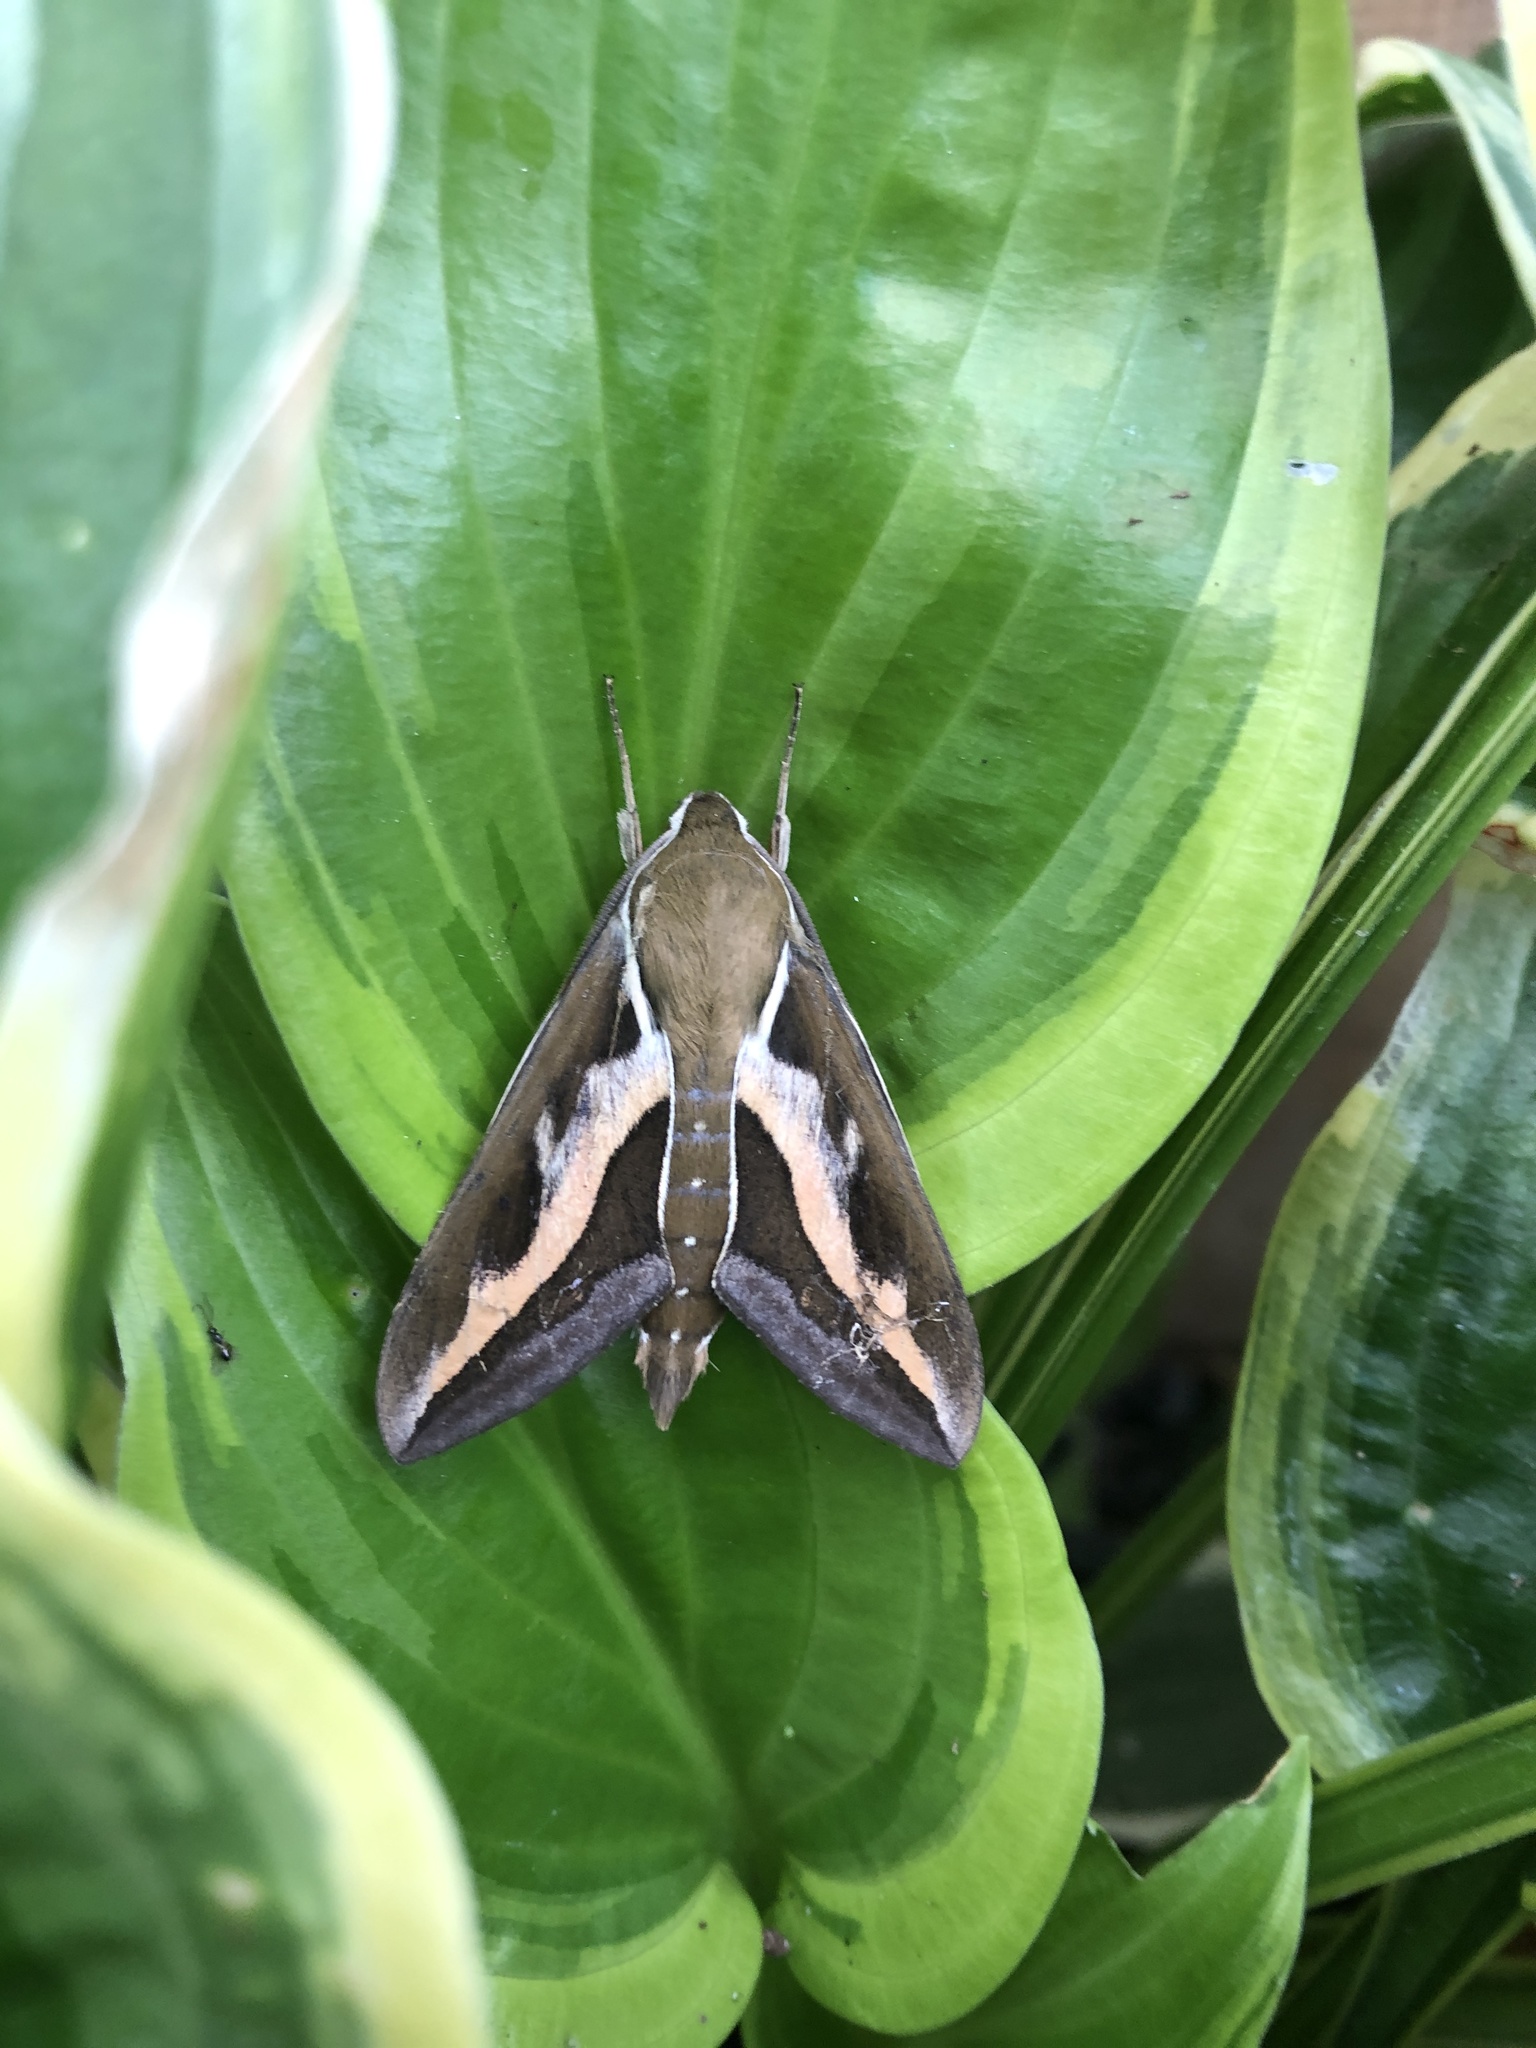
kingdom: Animalia
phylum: Arthropoda
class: Insecta
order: Lepidoptera
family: Sphingidae
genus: Hyles
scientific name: Hyles gallii
